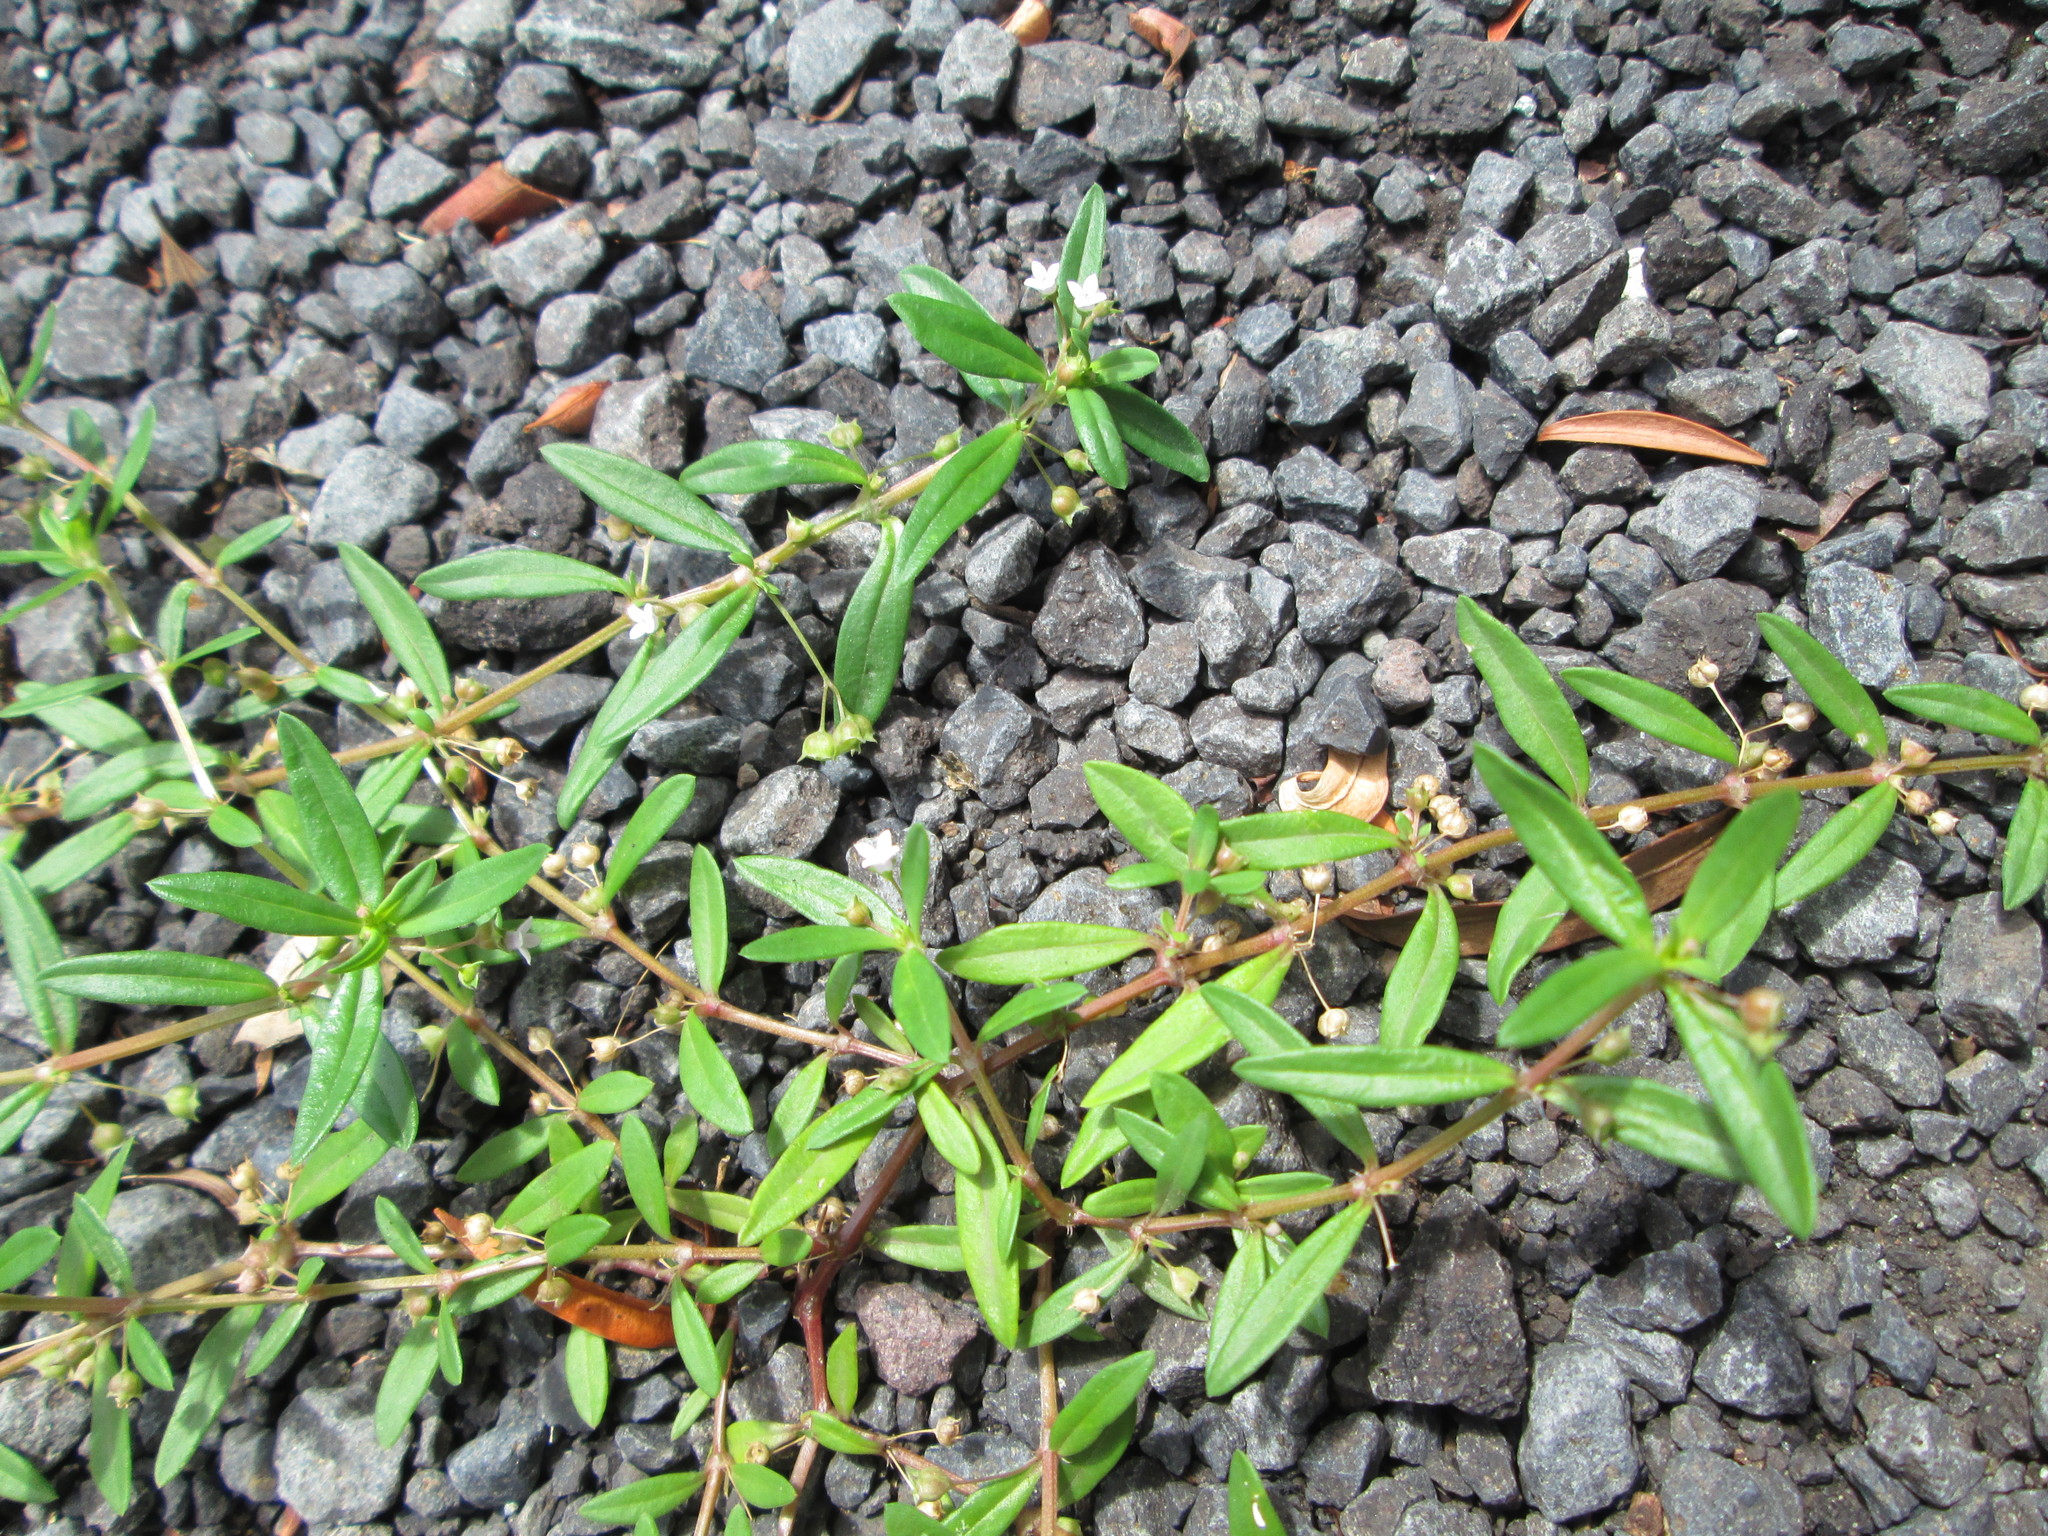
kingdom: Plantae
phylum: Tracheophyta
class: Magnoliopsida
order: Gentianales
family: Rubiaceae
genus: Oldenlandia
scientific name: Oldenlandia corymbosa
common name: Flat-top mille graines
